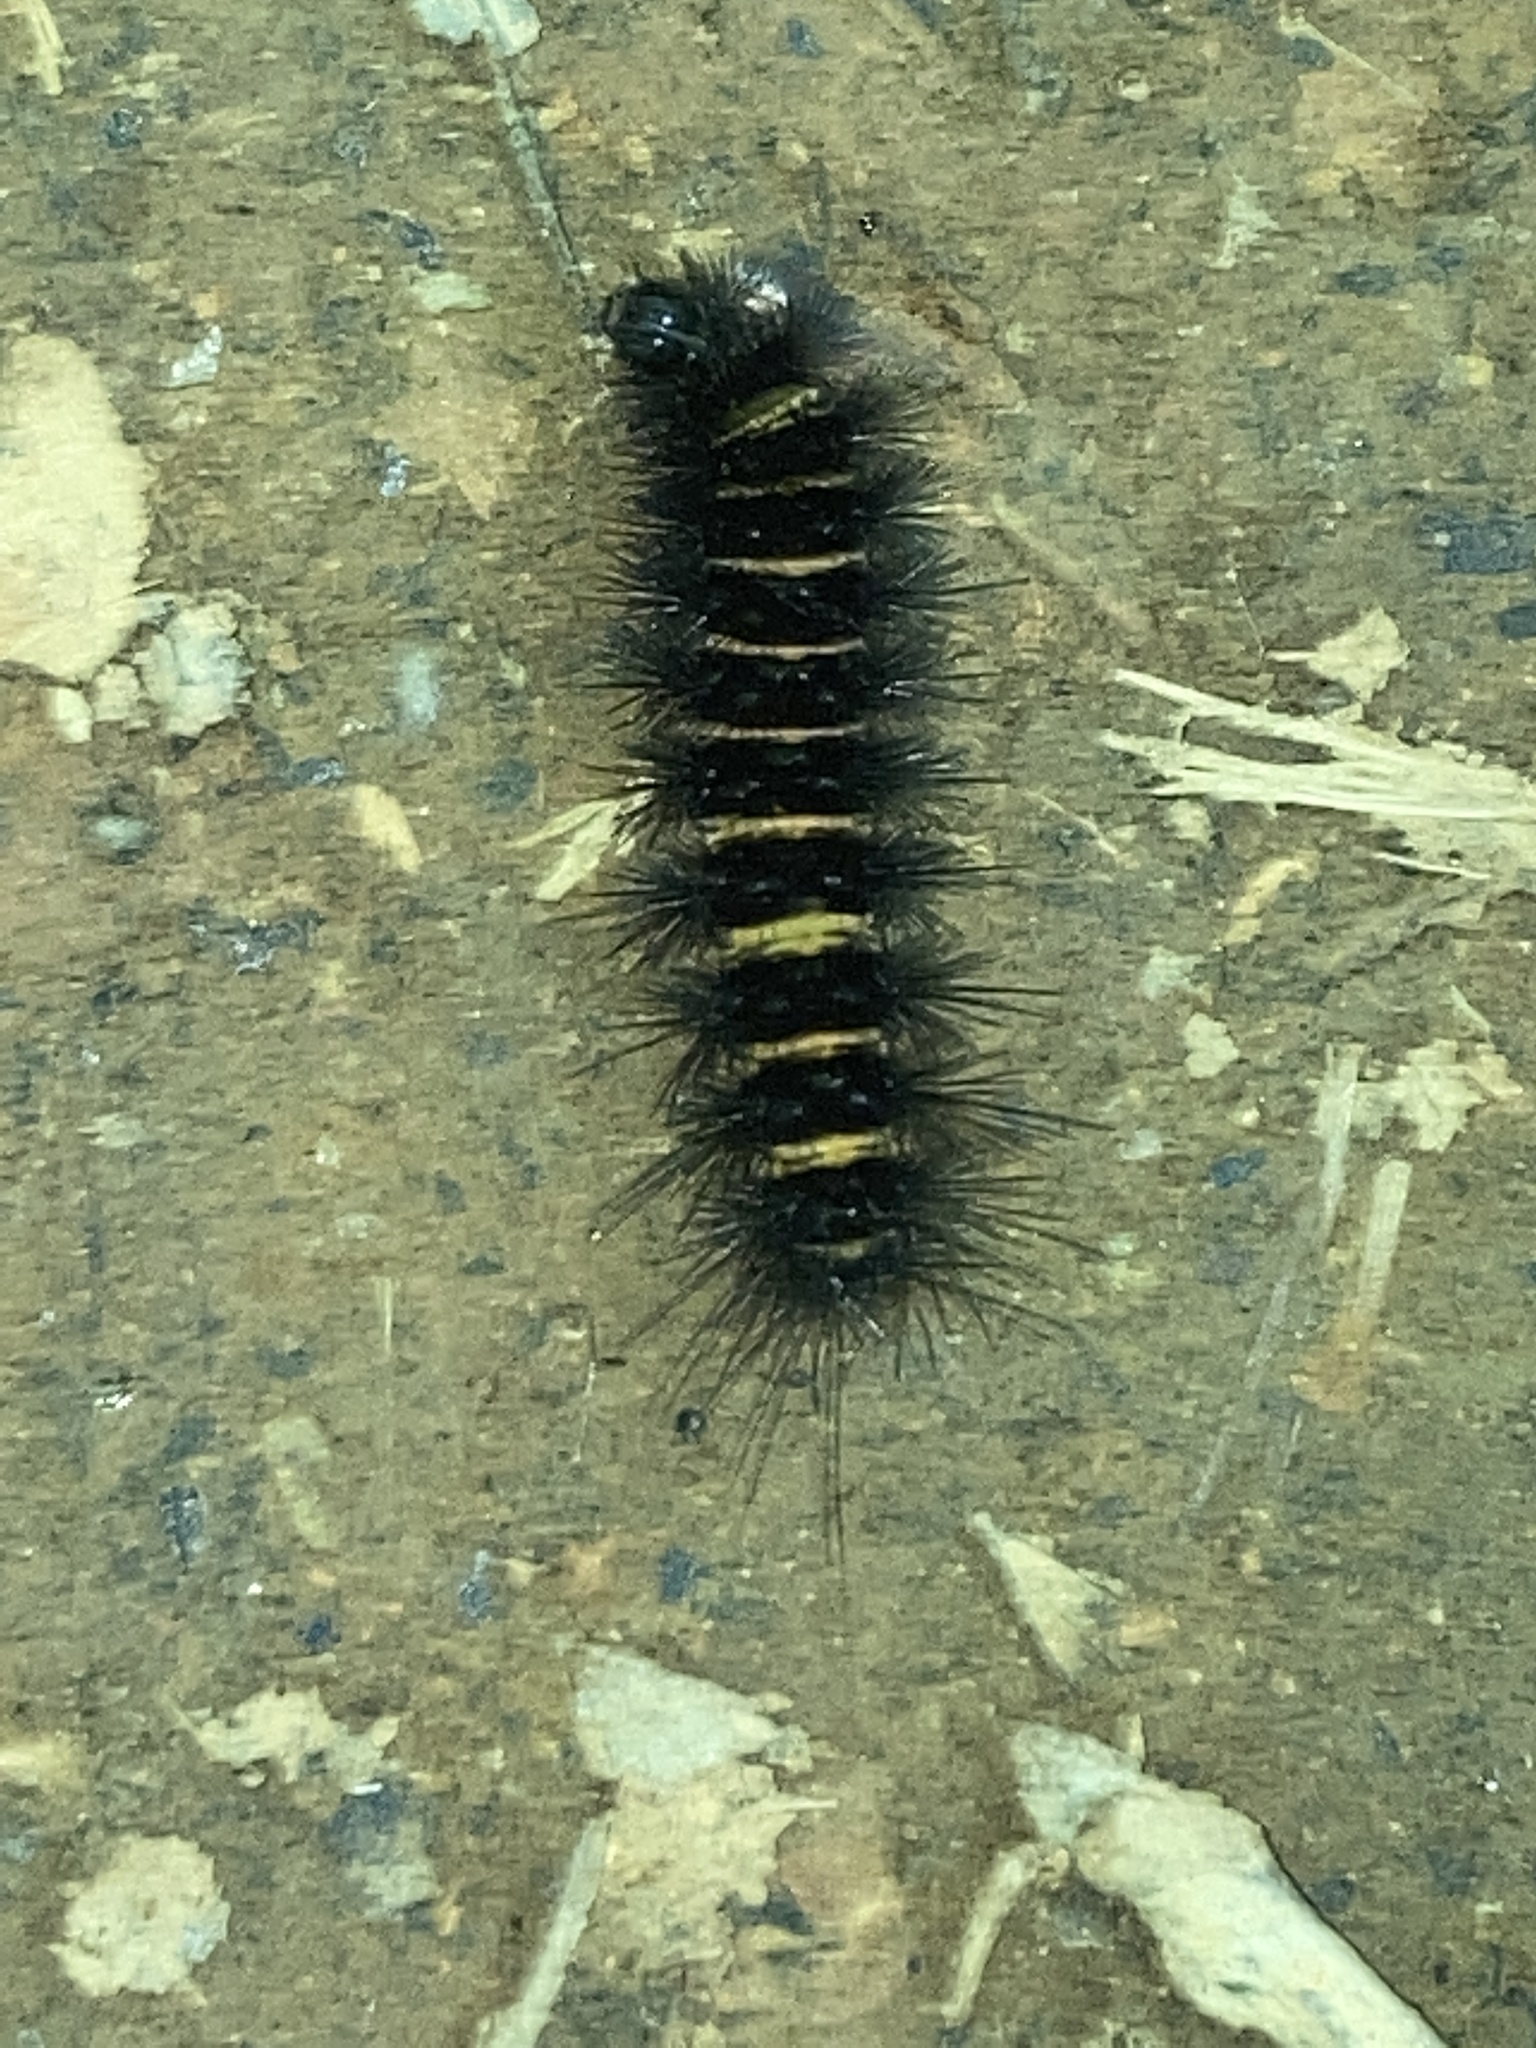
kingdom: Animalia
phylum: Arthropoda
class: Insecta
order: Lepidoptera
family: Erebidae
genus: Spilosoma
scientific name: Spilosoma congrua
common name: Agreeable tiger moth
